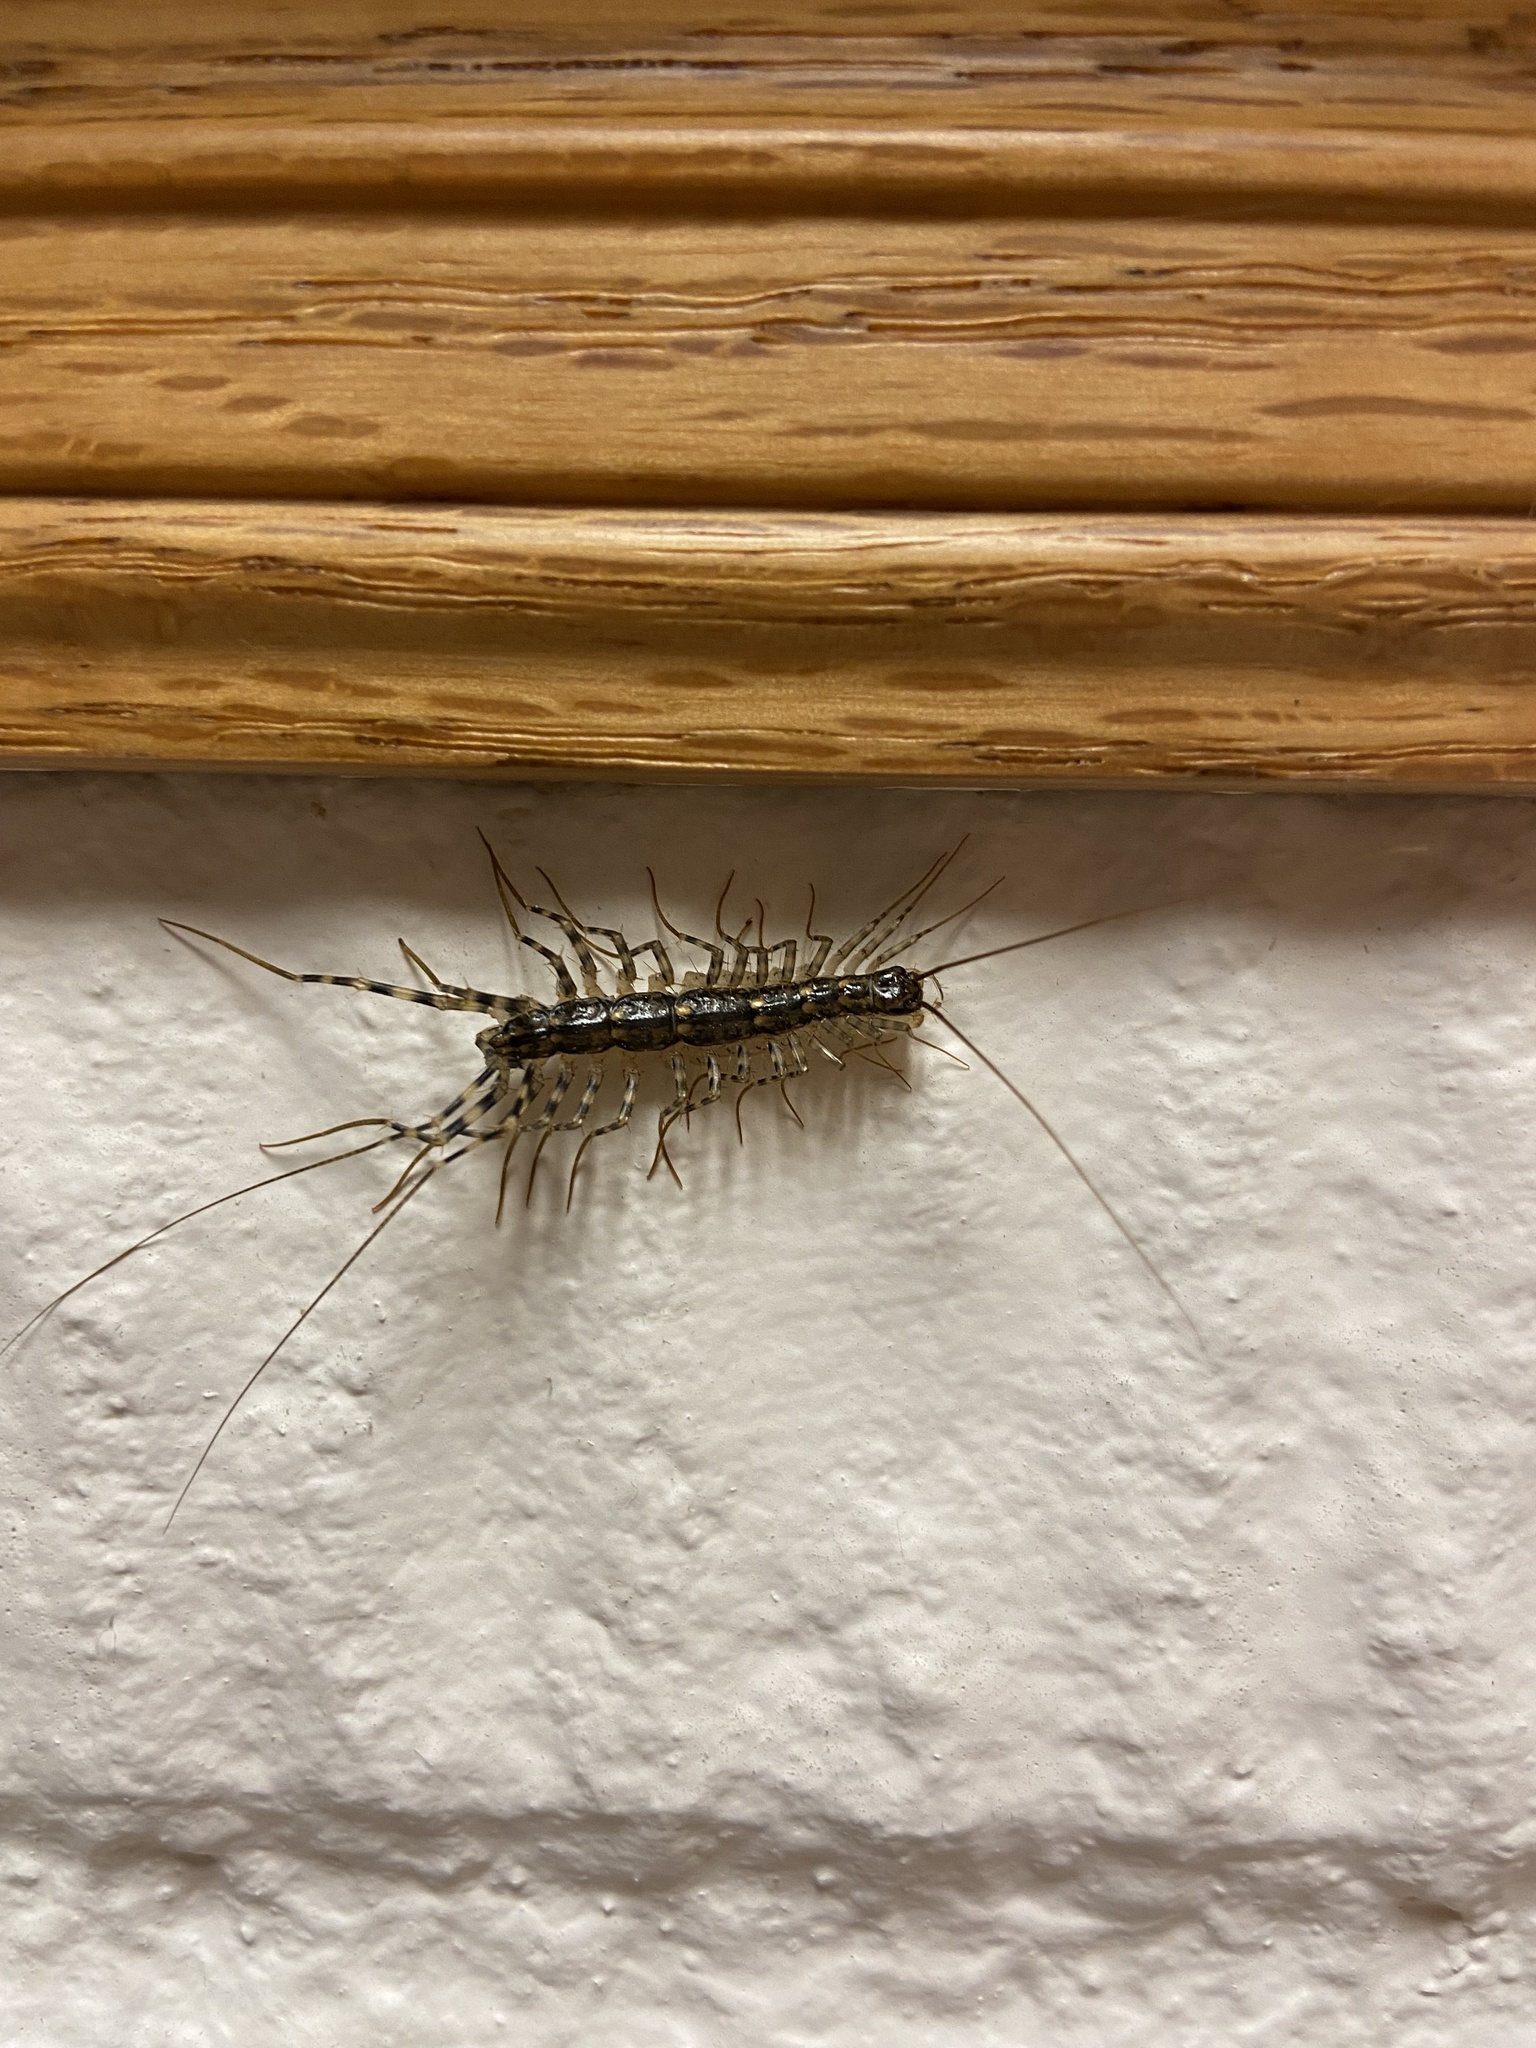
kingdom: Animalia
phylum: Arthropoda
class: Chilopoda
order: Scutigeromorpha
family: Scutigeridae
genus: Scutigera
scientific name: Scutigera coleoptrata
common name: House centipede
